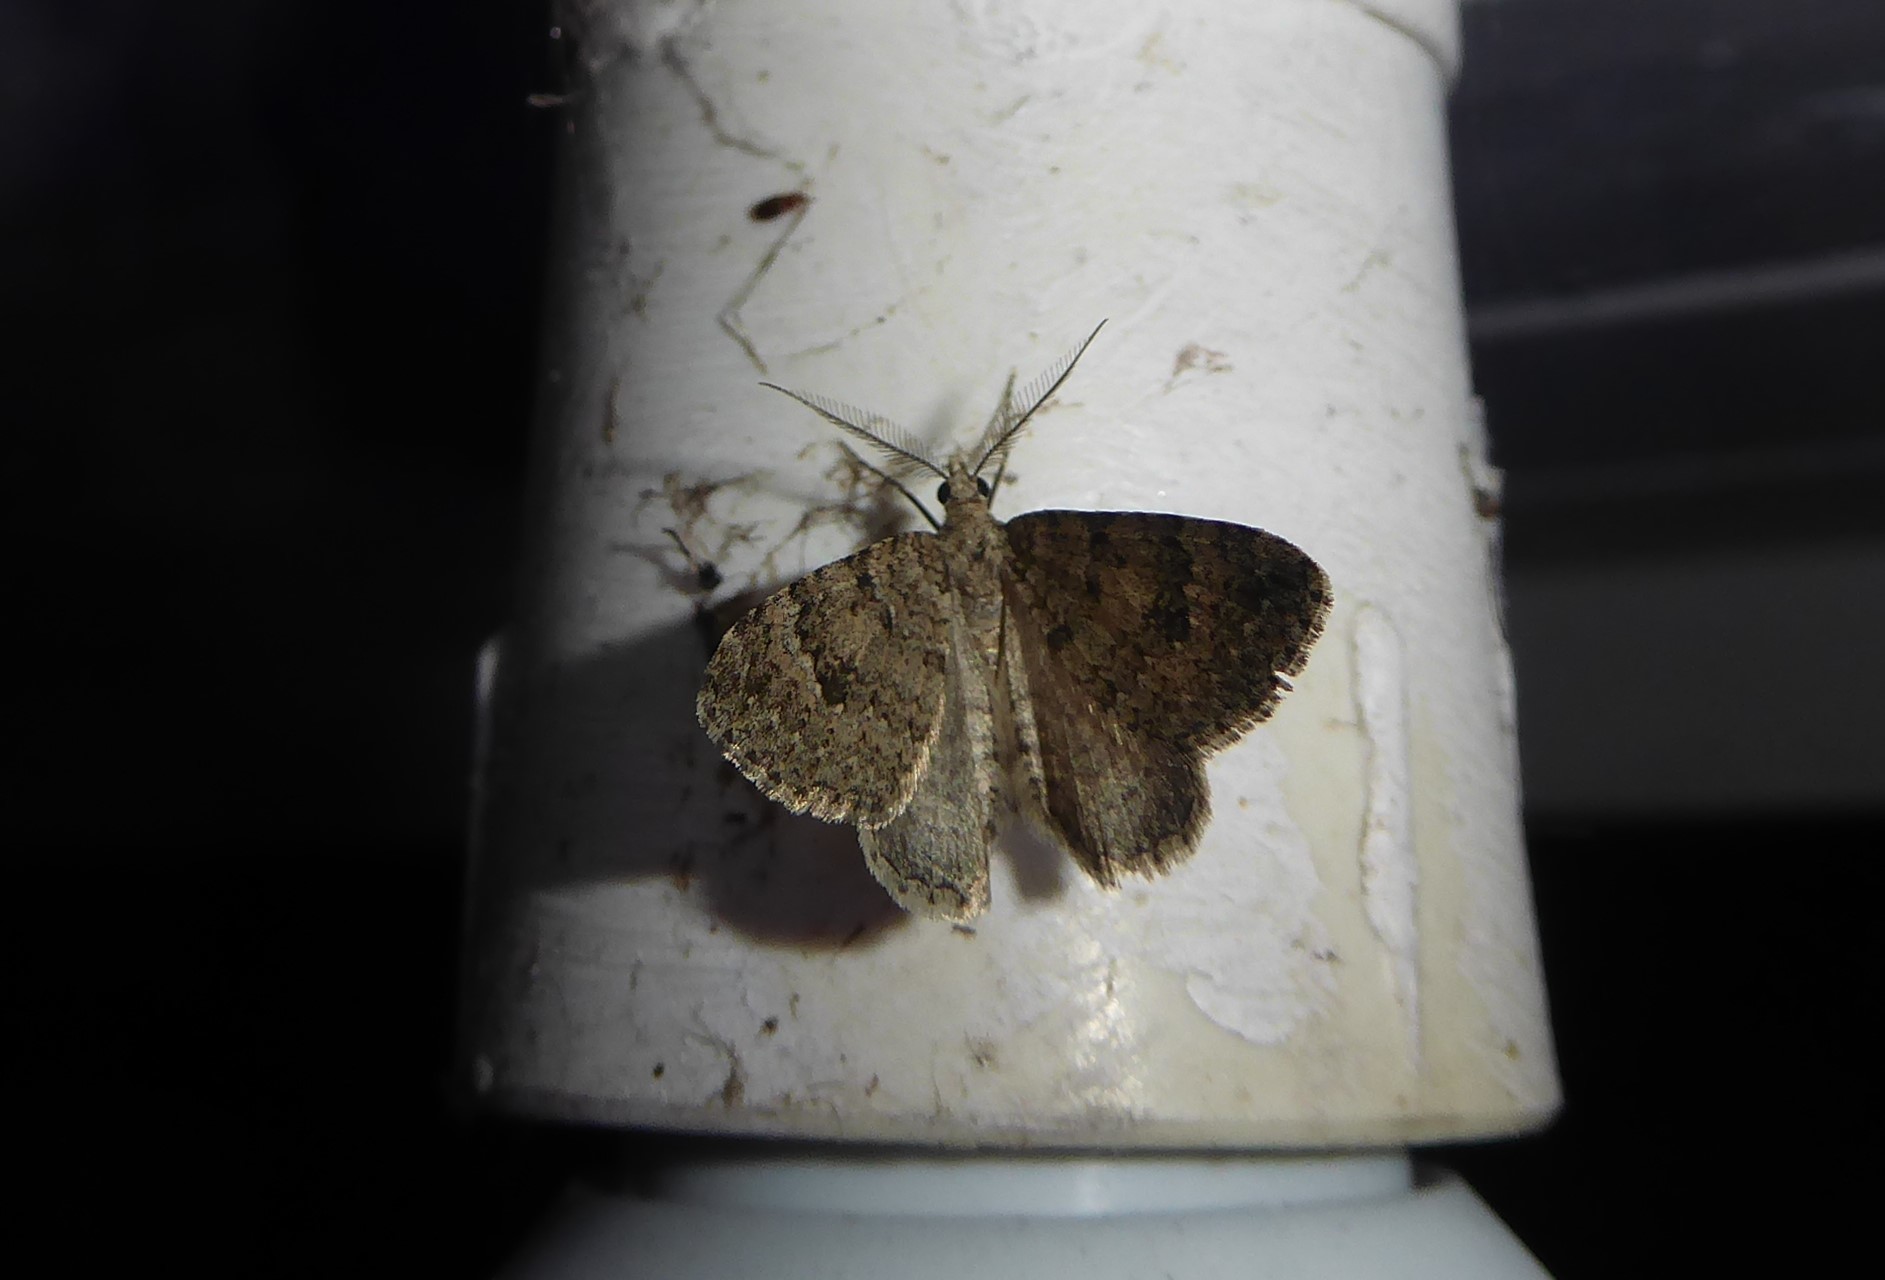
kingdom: Animalia
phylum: Arthropoda
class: Insecta
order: Lepidoptera
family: Geometridae
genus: Helastia
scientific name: Helastia corcularia
